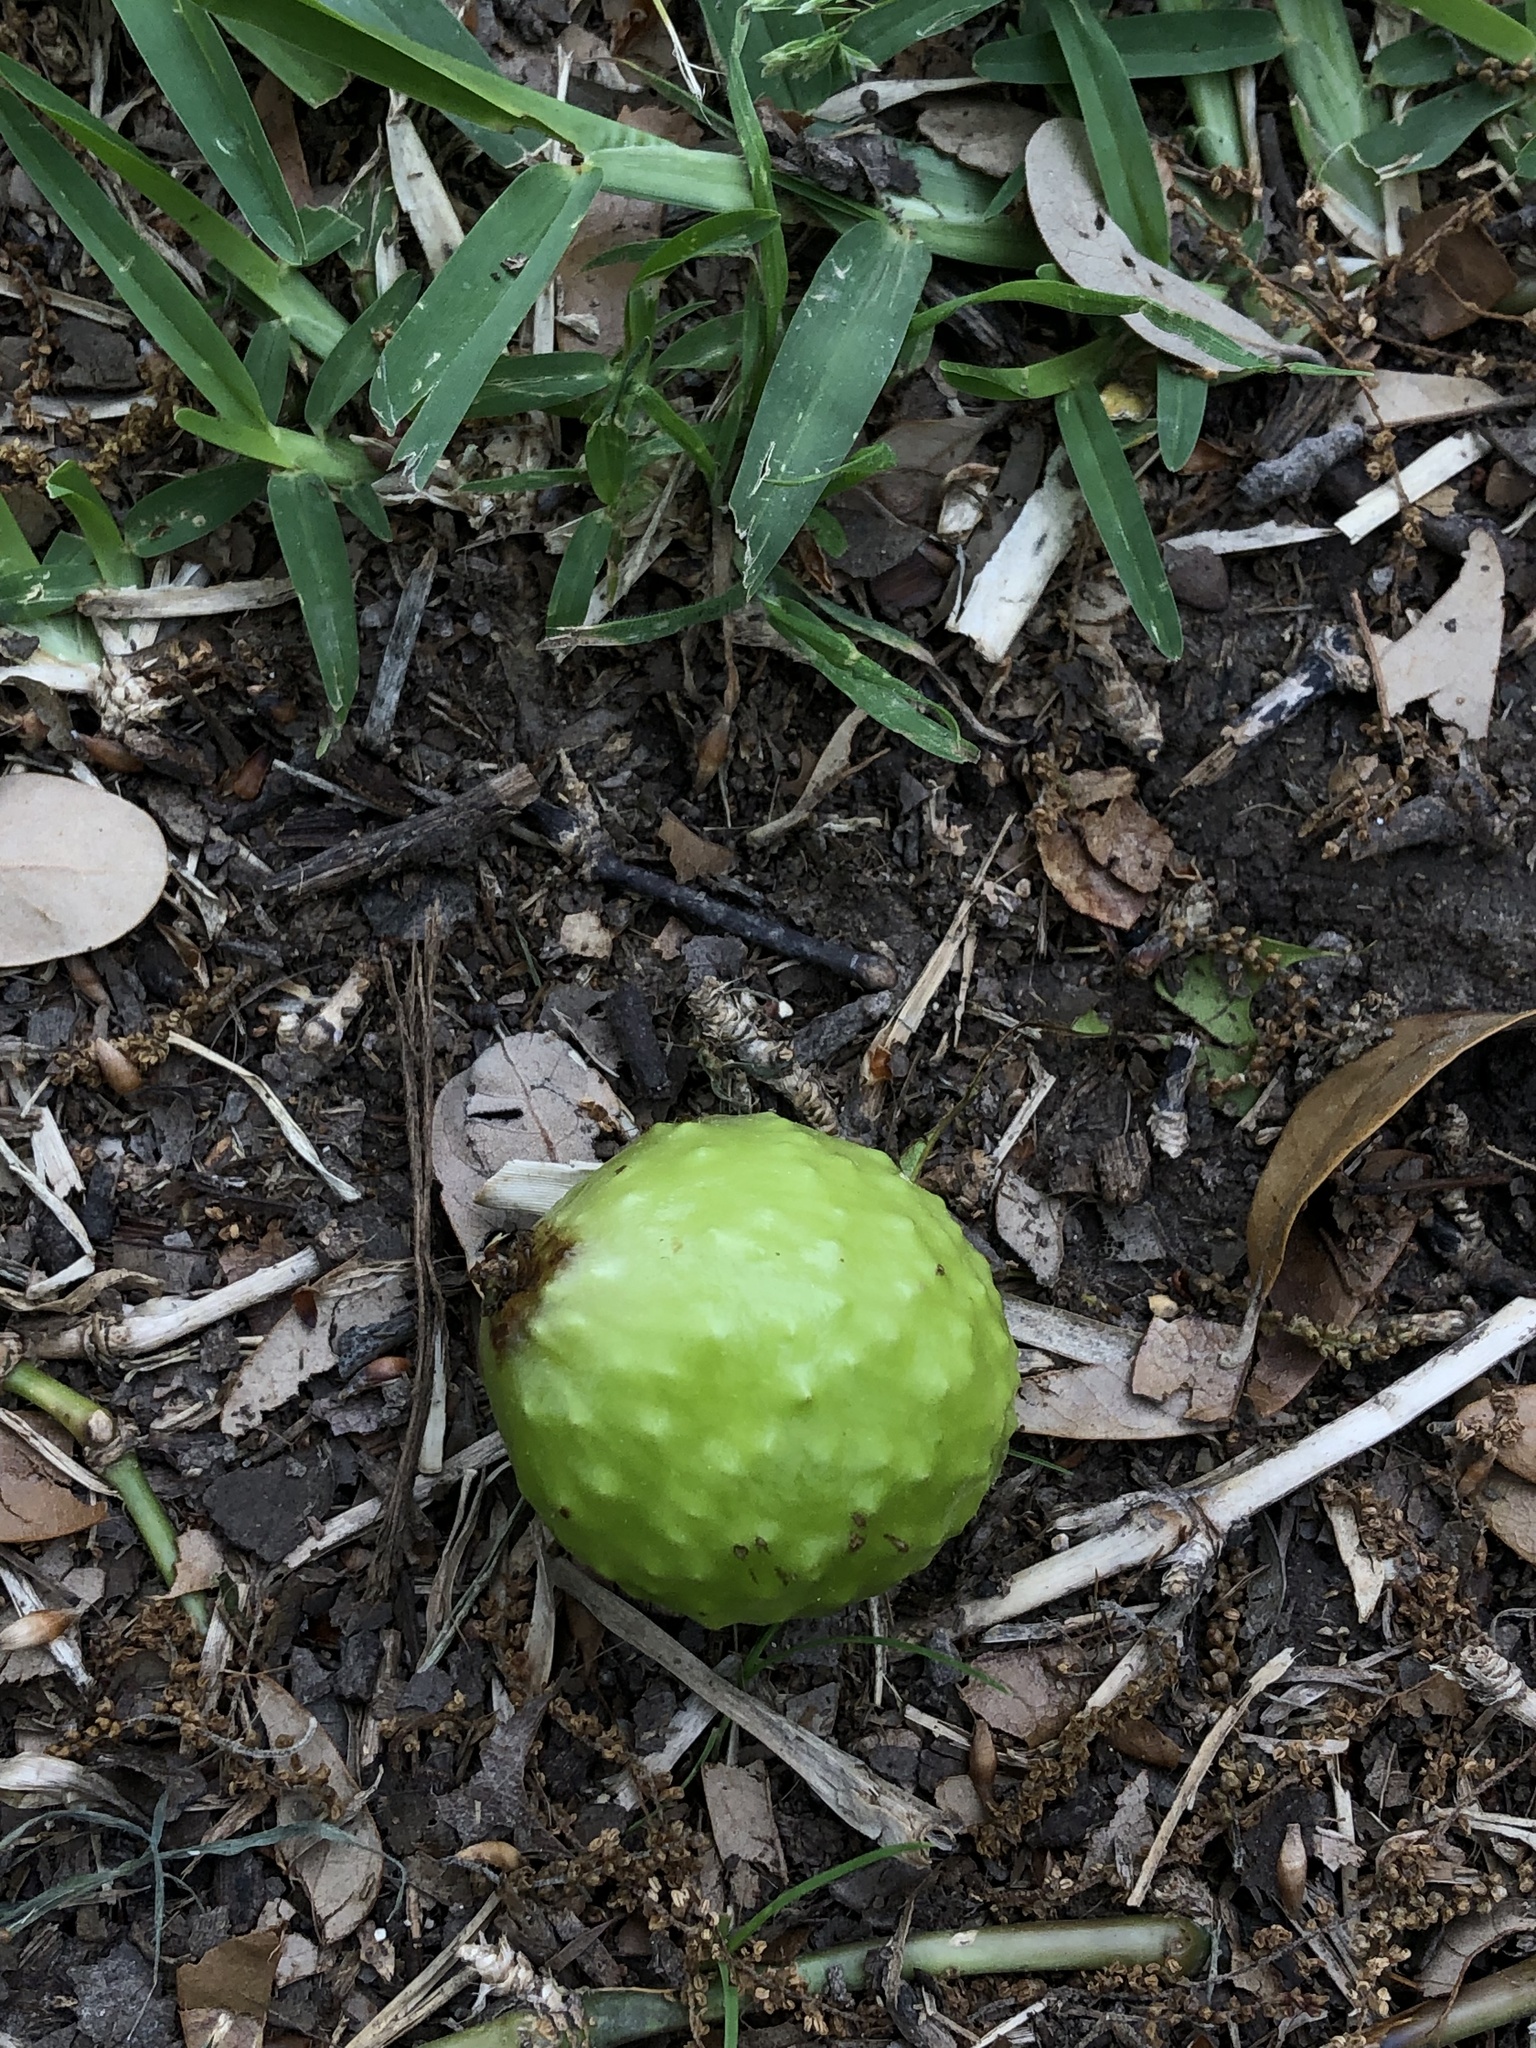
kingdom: Animalia
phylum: Arthropoda
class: Insecta
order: Hymenoptera
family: Cynipidae
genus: Amphibolips
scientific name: Amphibolips
